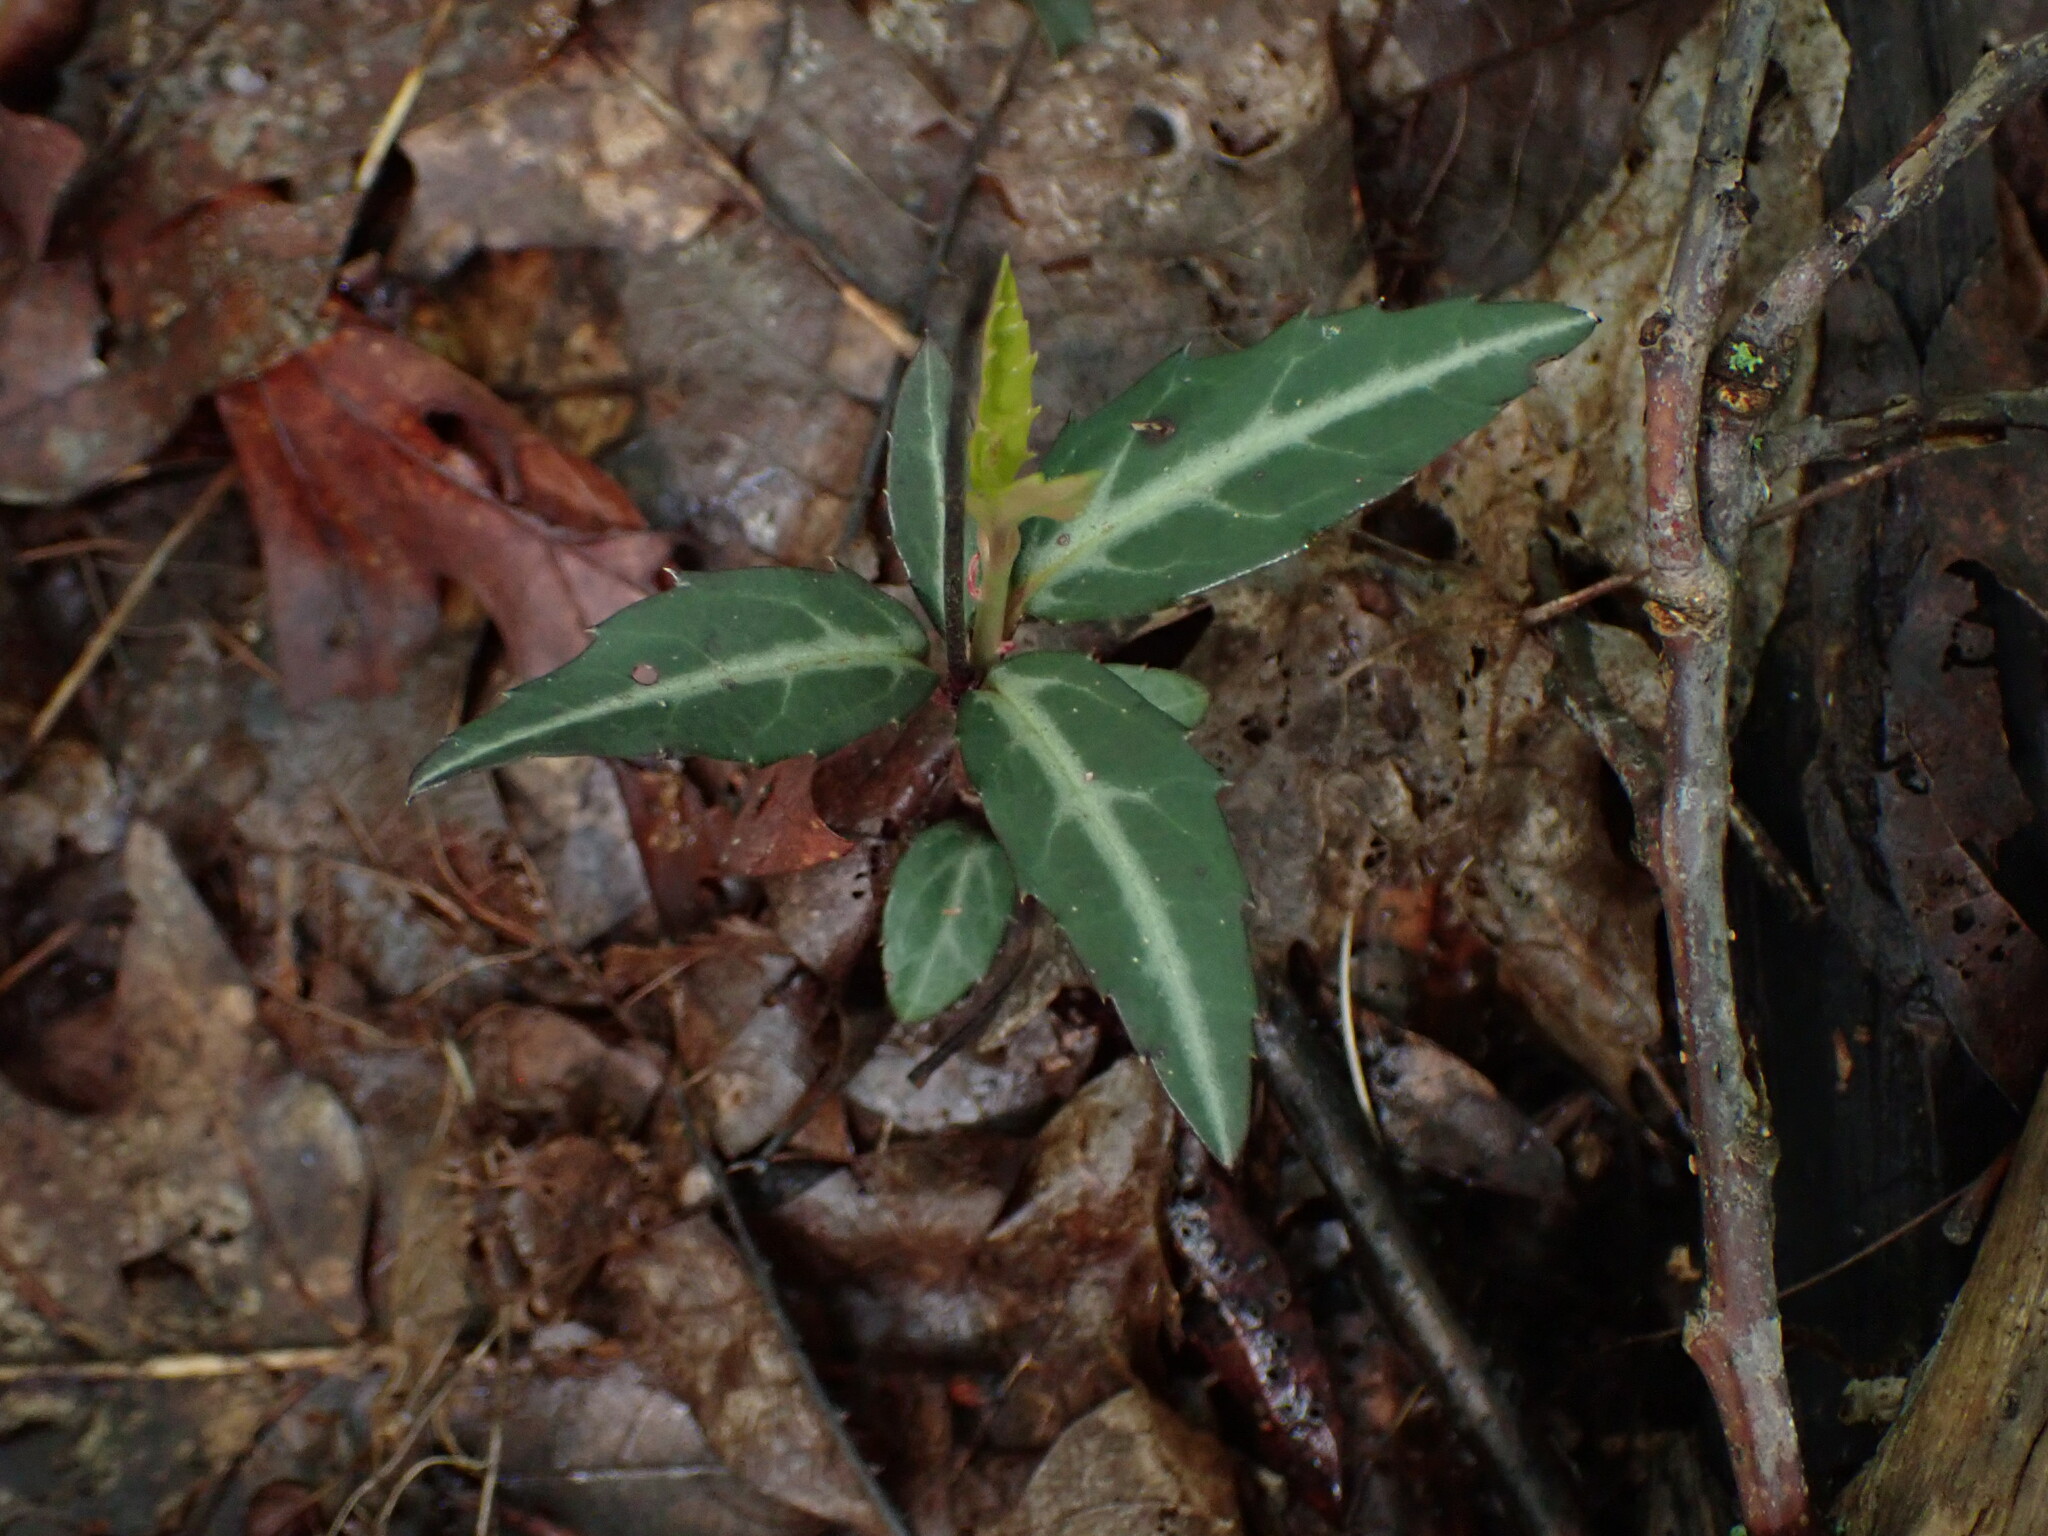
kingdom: Plantae
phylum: Tracheophyta
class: Magnoliopsida
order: Ericales
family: Ericaceae
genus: Chimaphila
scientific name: Chimaphila maculata
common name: Spotted pipsissewa
